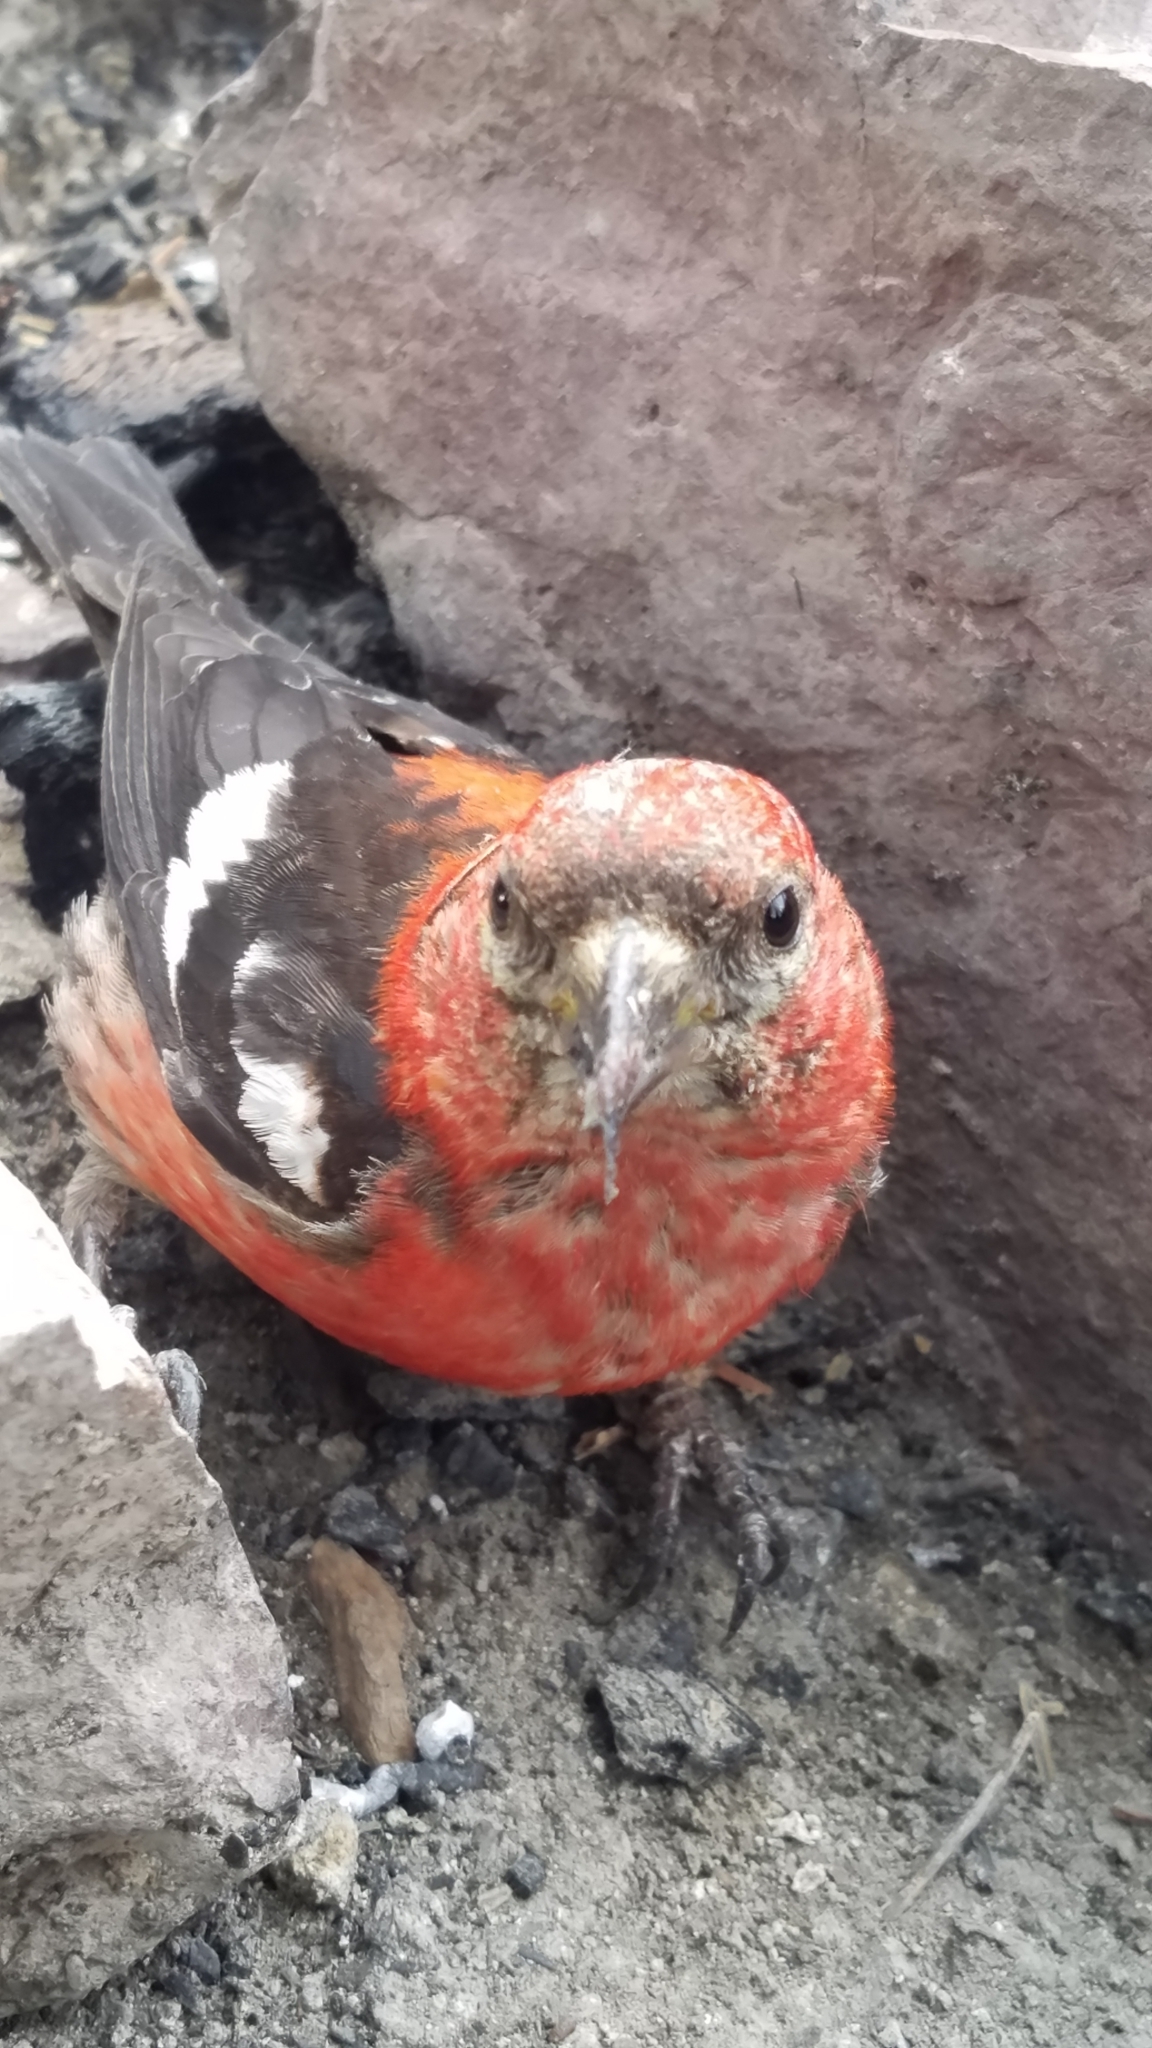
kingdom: Animalia
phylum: Chordata
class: Aves
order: Passeriformes
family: Fringillidae
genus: Loxia
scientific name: Loxia leucoptera
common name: Two-barred crossbill
